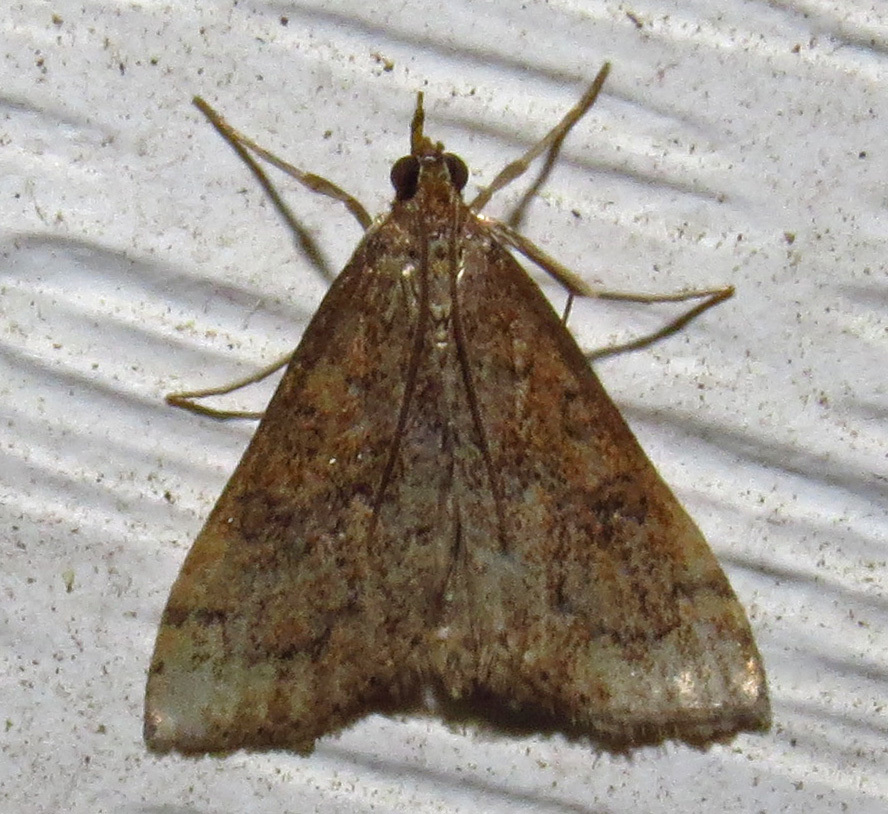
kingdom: Animalia
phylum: Arthropoda
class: Insecta
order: Lepidoptera
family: Crambidae
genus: Udea
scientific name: Udea rubigalis
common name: Celery leaftier moth
